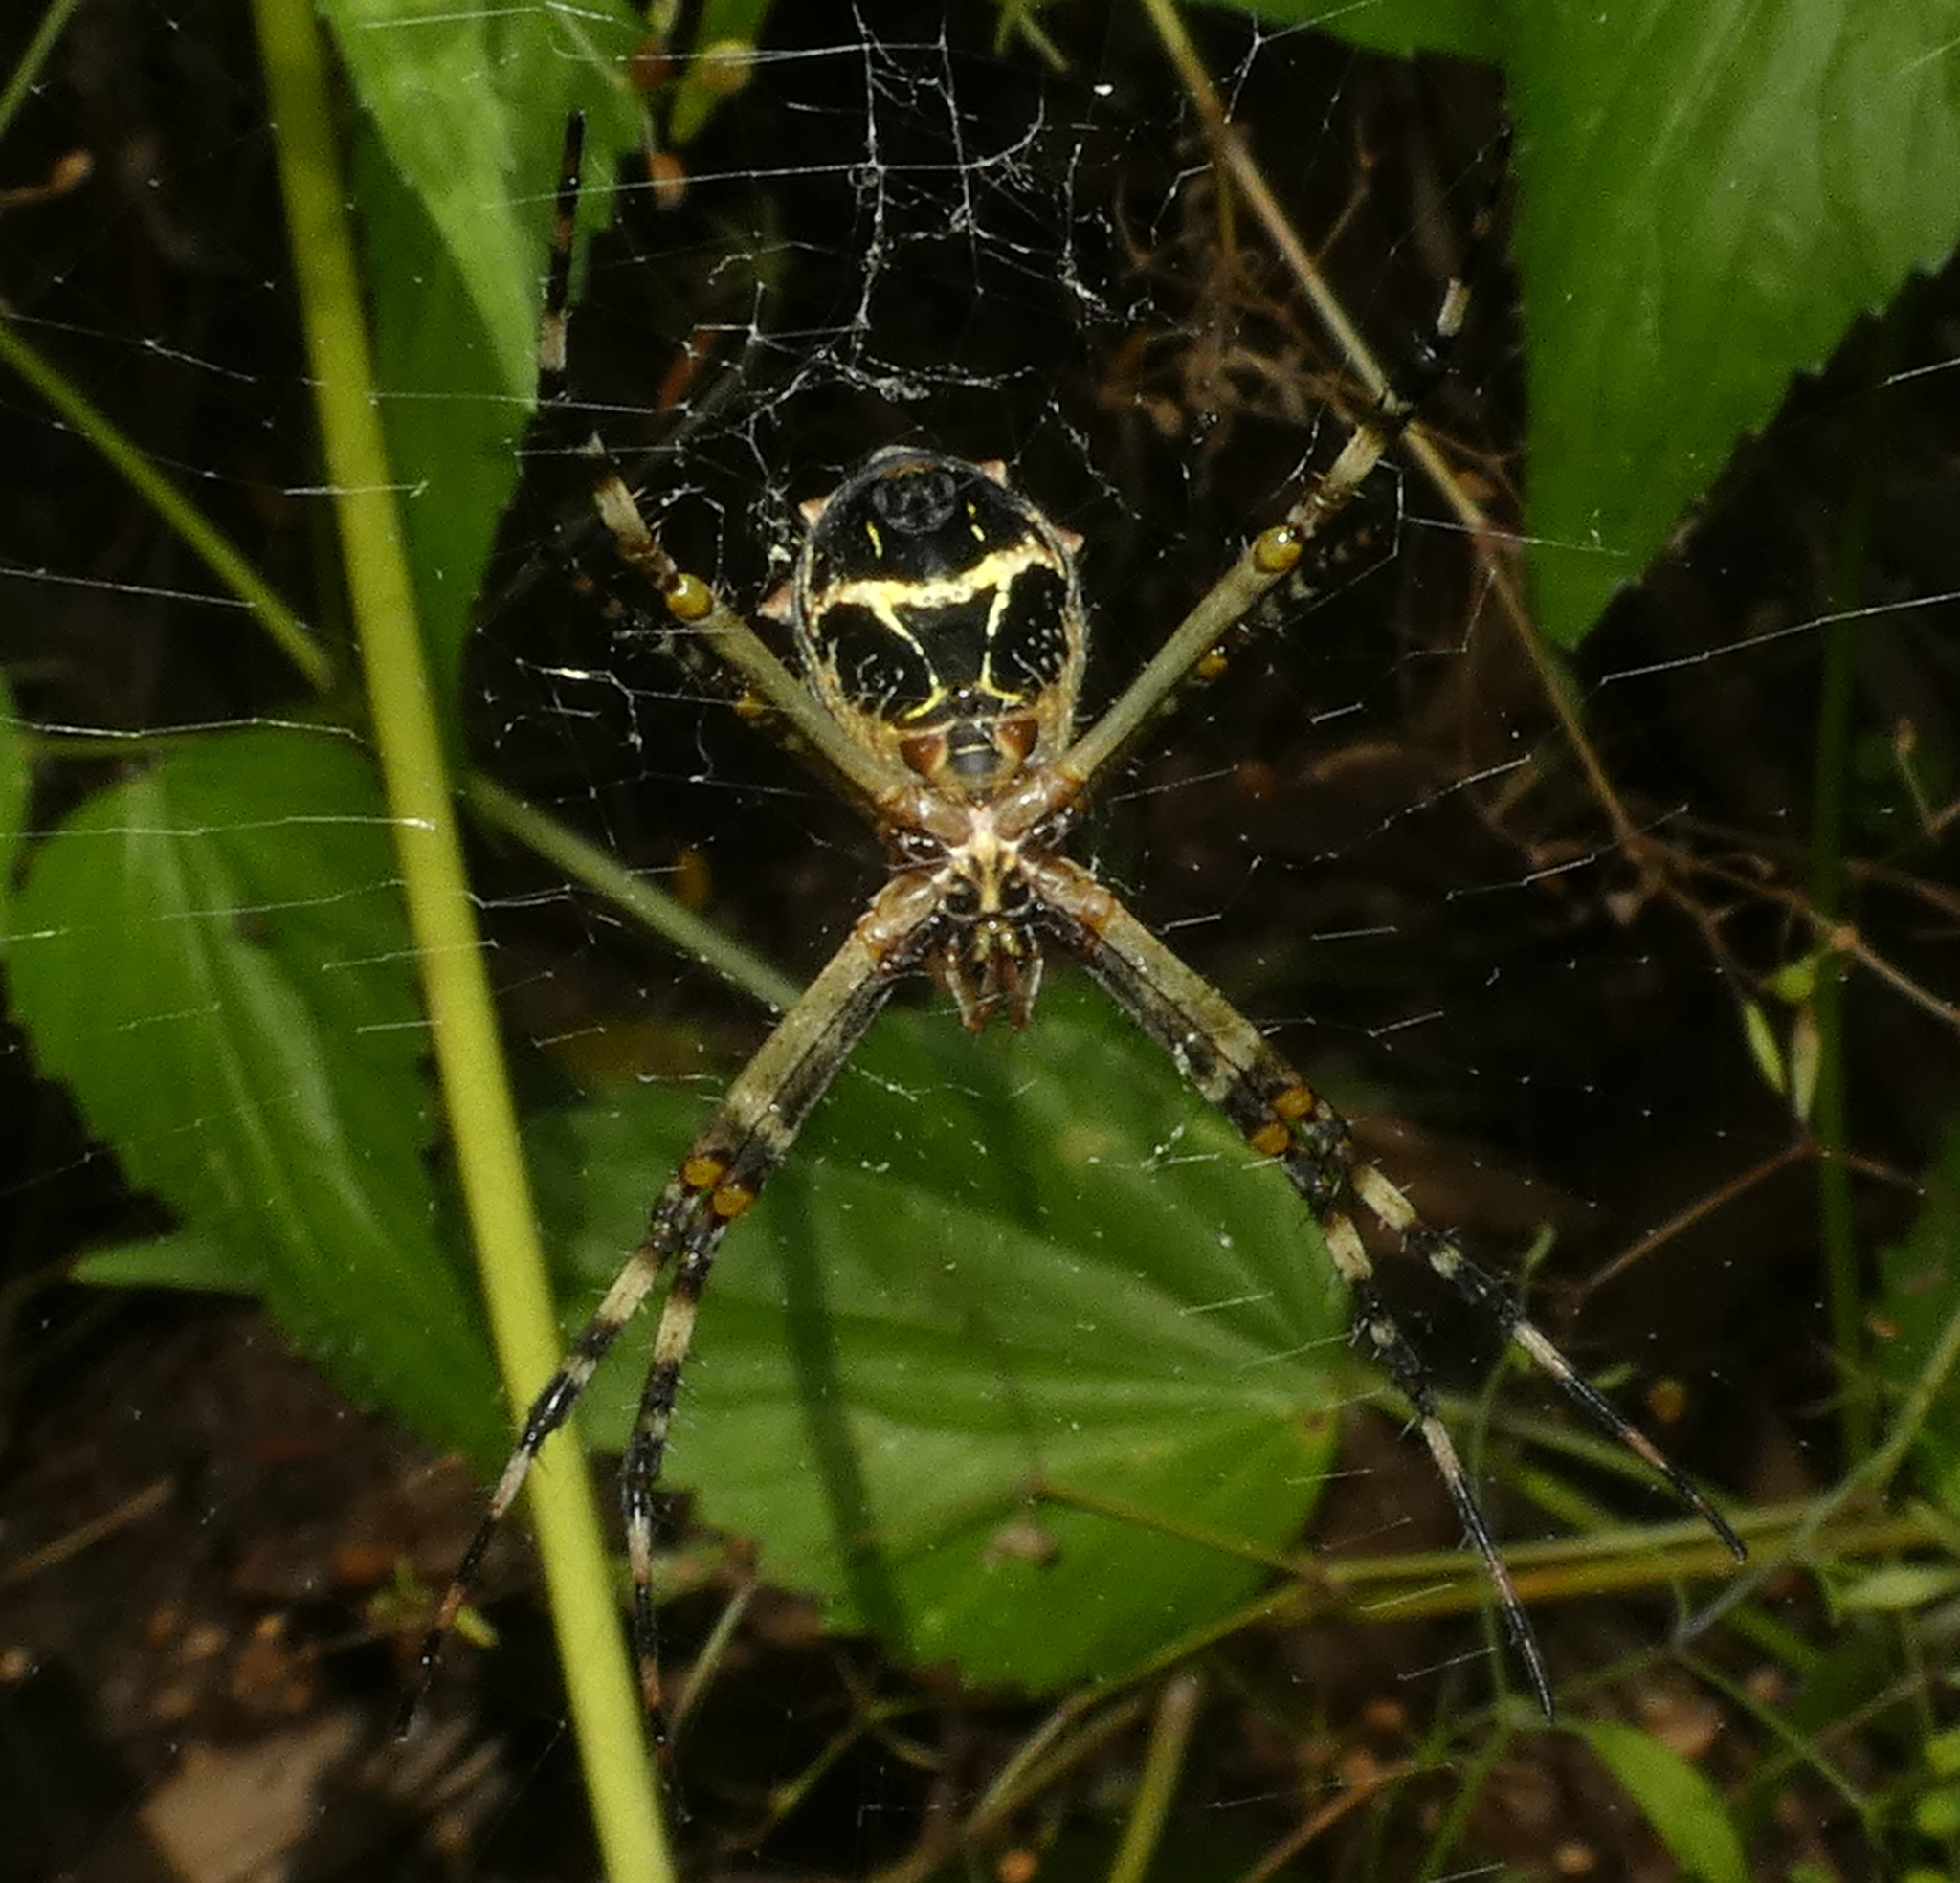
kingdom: Animalia
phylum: Arthropoda
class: Arachnida
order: Araneae
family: Araneidae
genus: Argiope
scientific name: Argiope argentata
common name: Orb weavers
